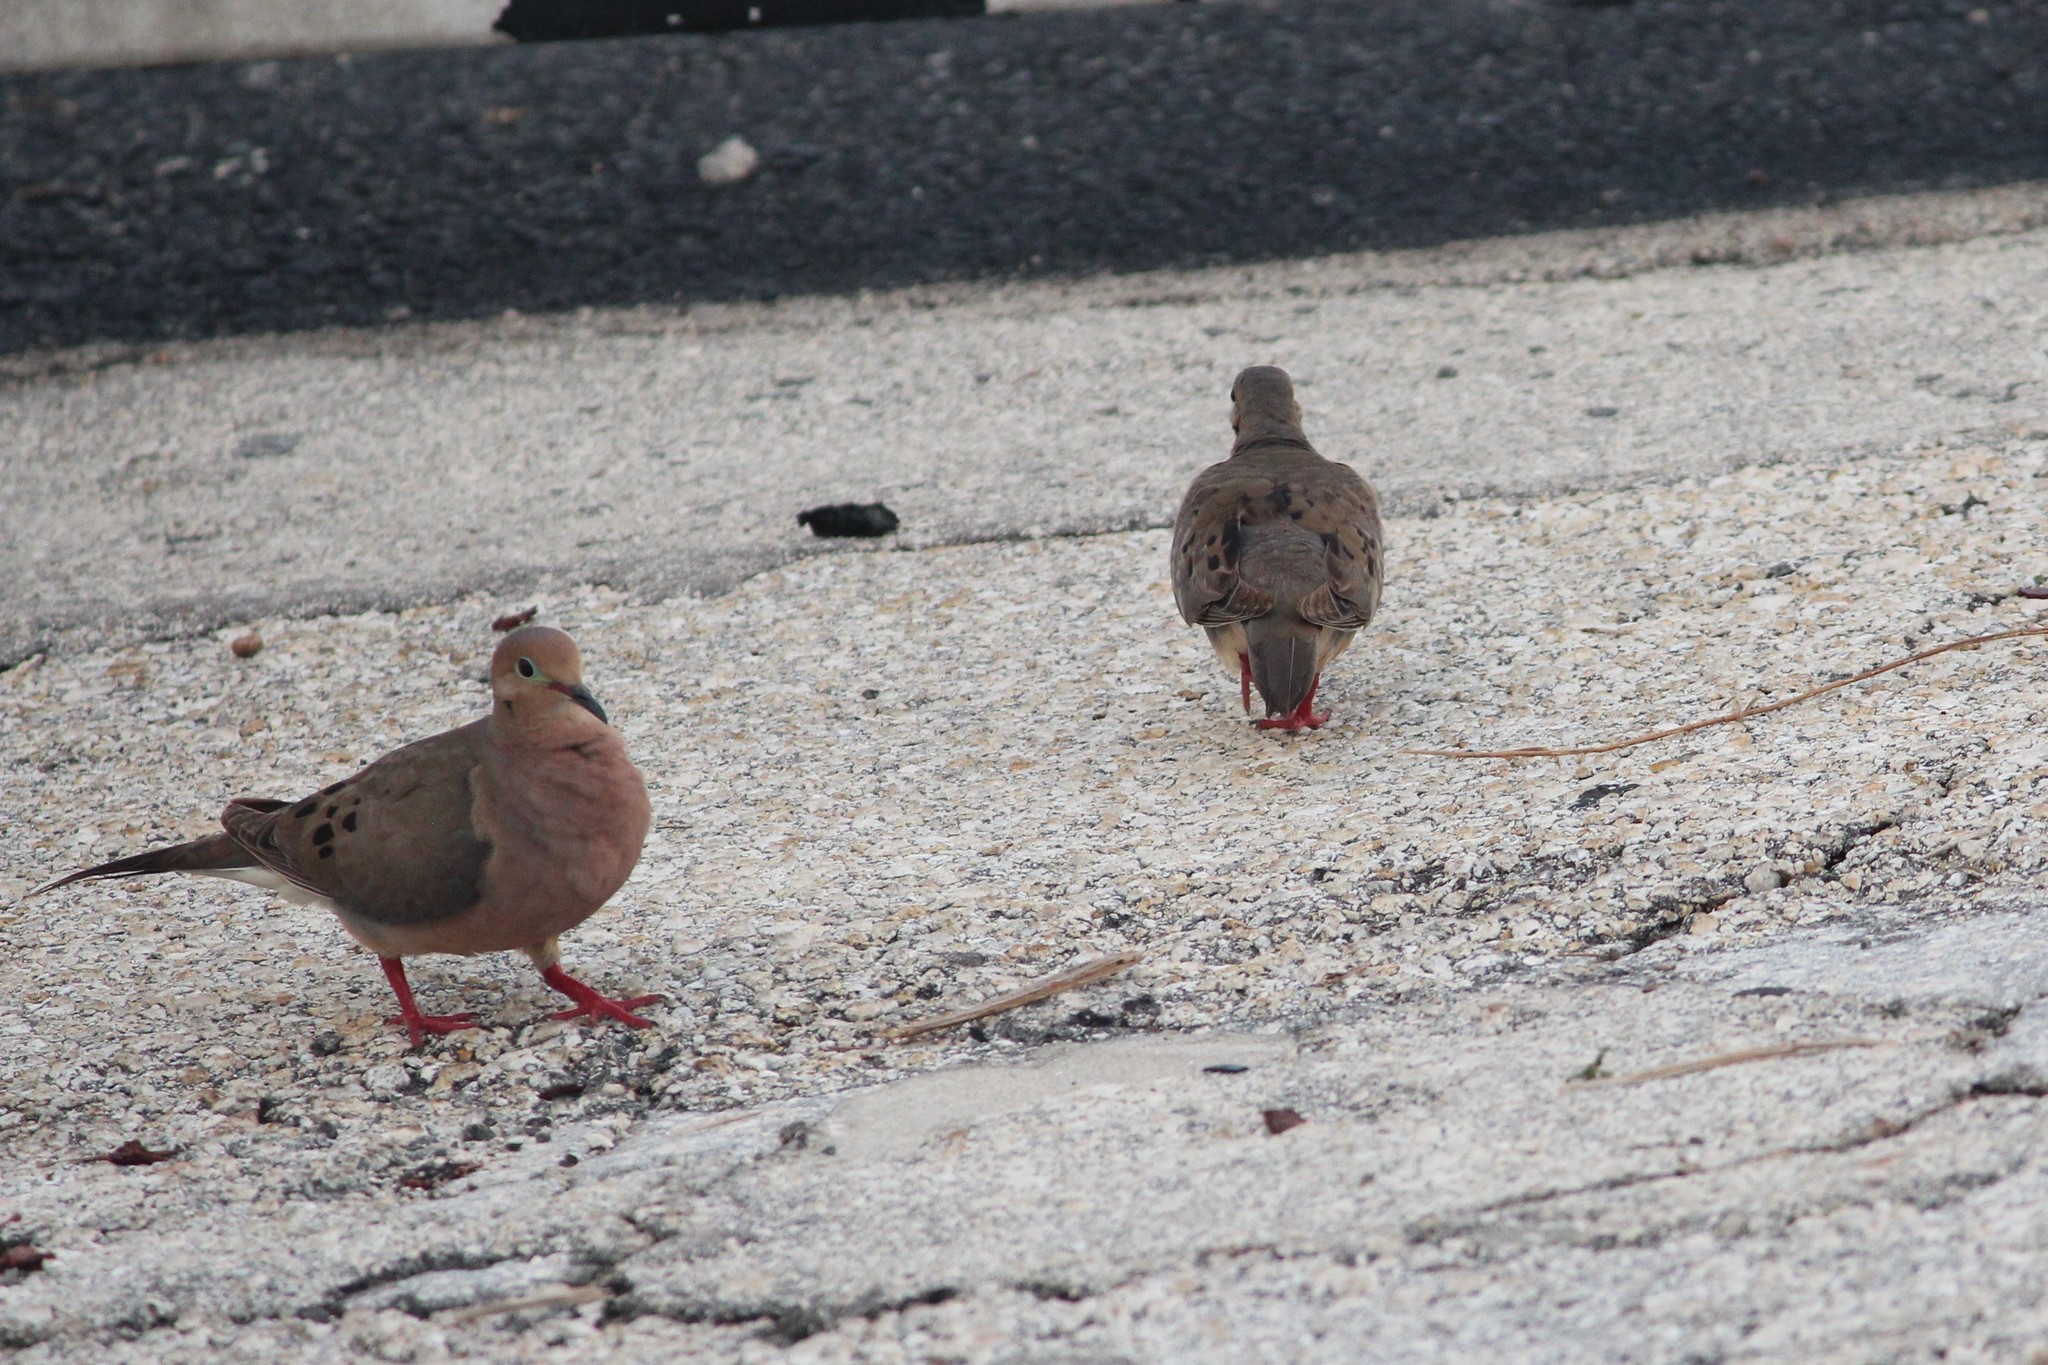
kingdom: Animalia
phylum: Chordata
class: Aves
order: Columbiformes
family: Columbidae
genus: Zenaida
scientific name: Zenaida macroura
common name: Mourning dove
